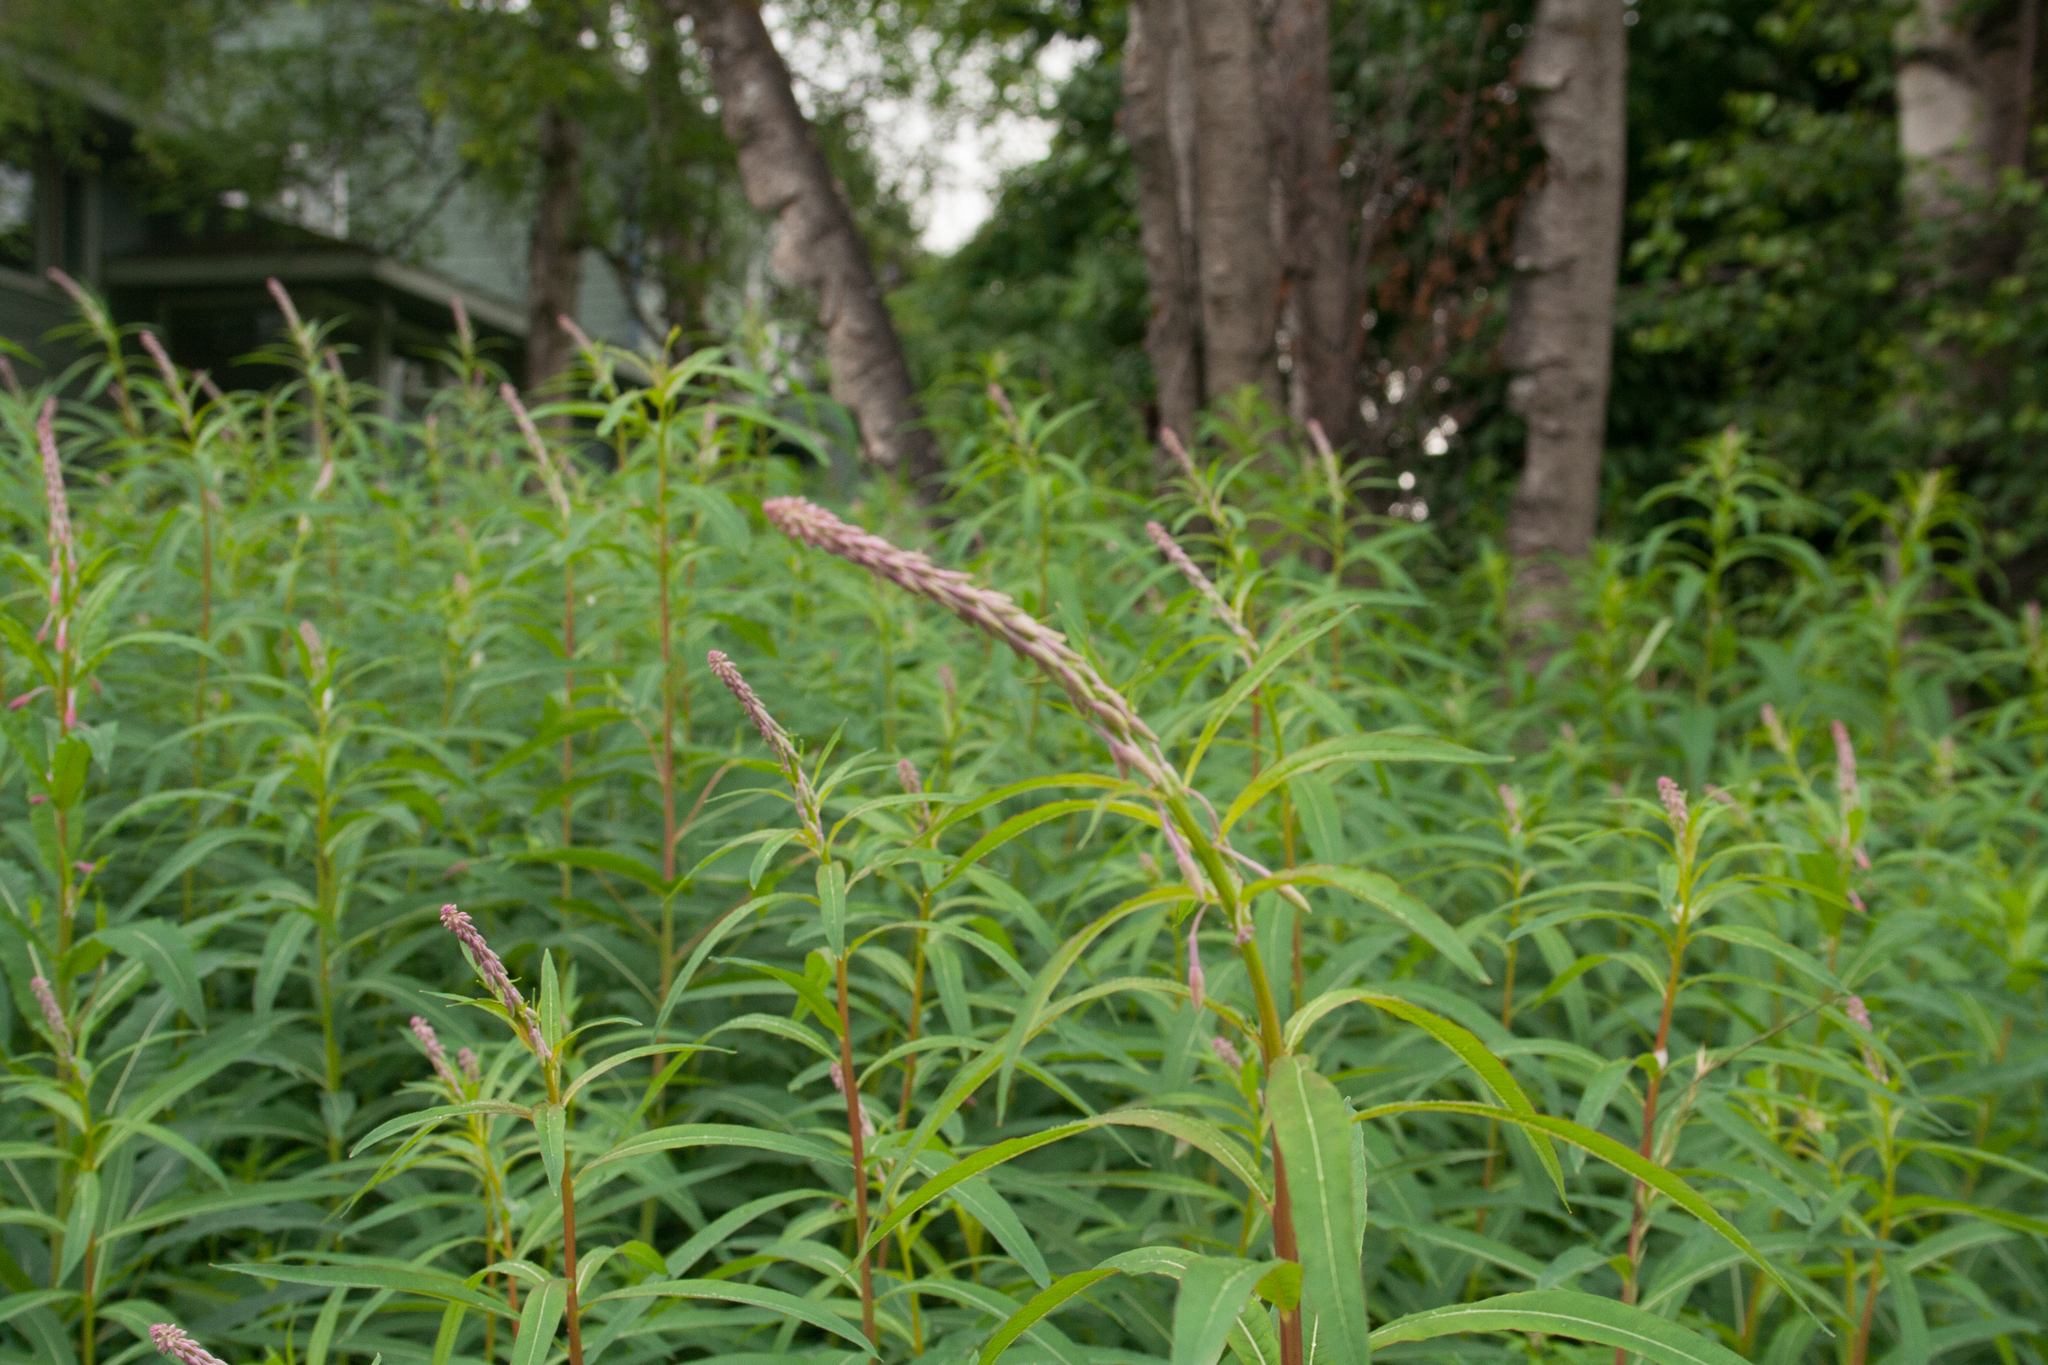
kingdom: Plantae
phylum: Tracheophyta
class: Magnoliopsida
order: Myrtales
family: Onagraceae
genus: Chamaenerion
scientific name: Chamaenerion angustifolium
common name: Fireweed
